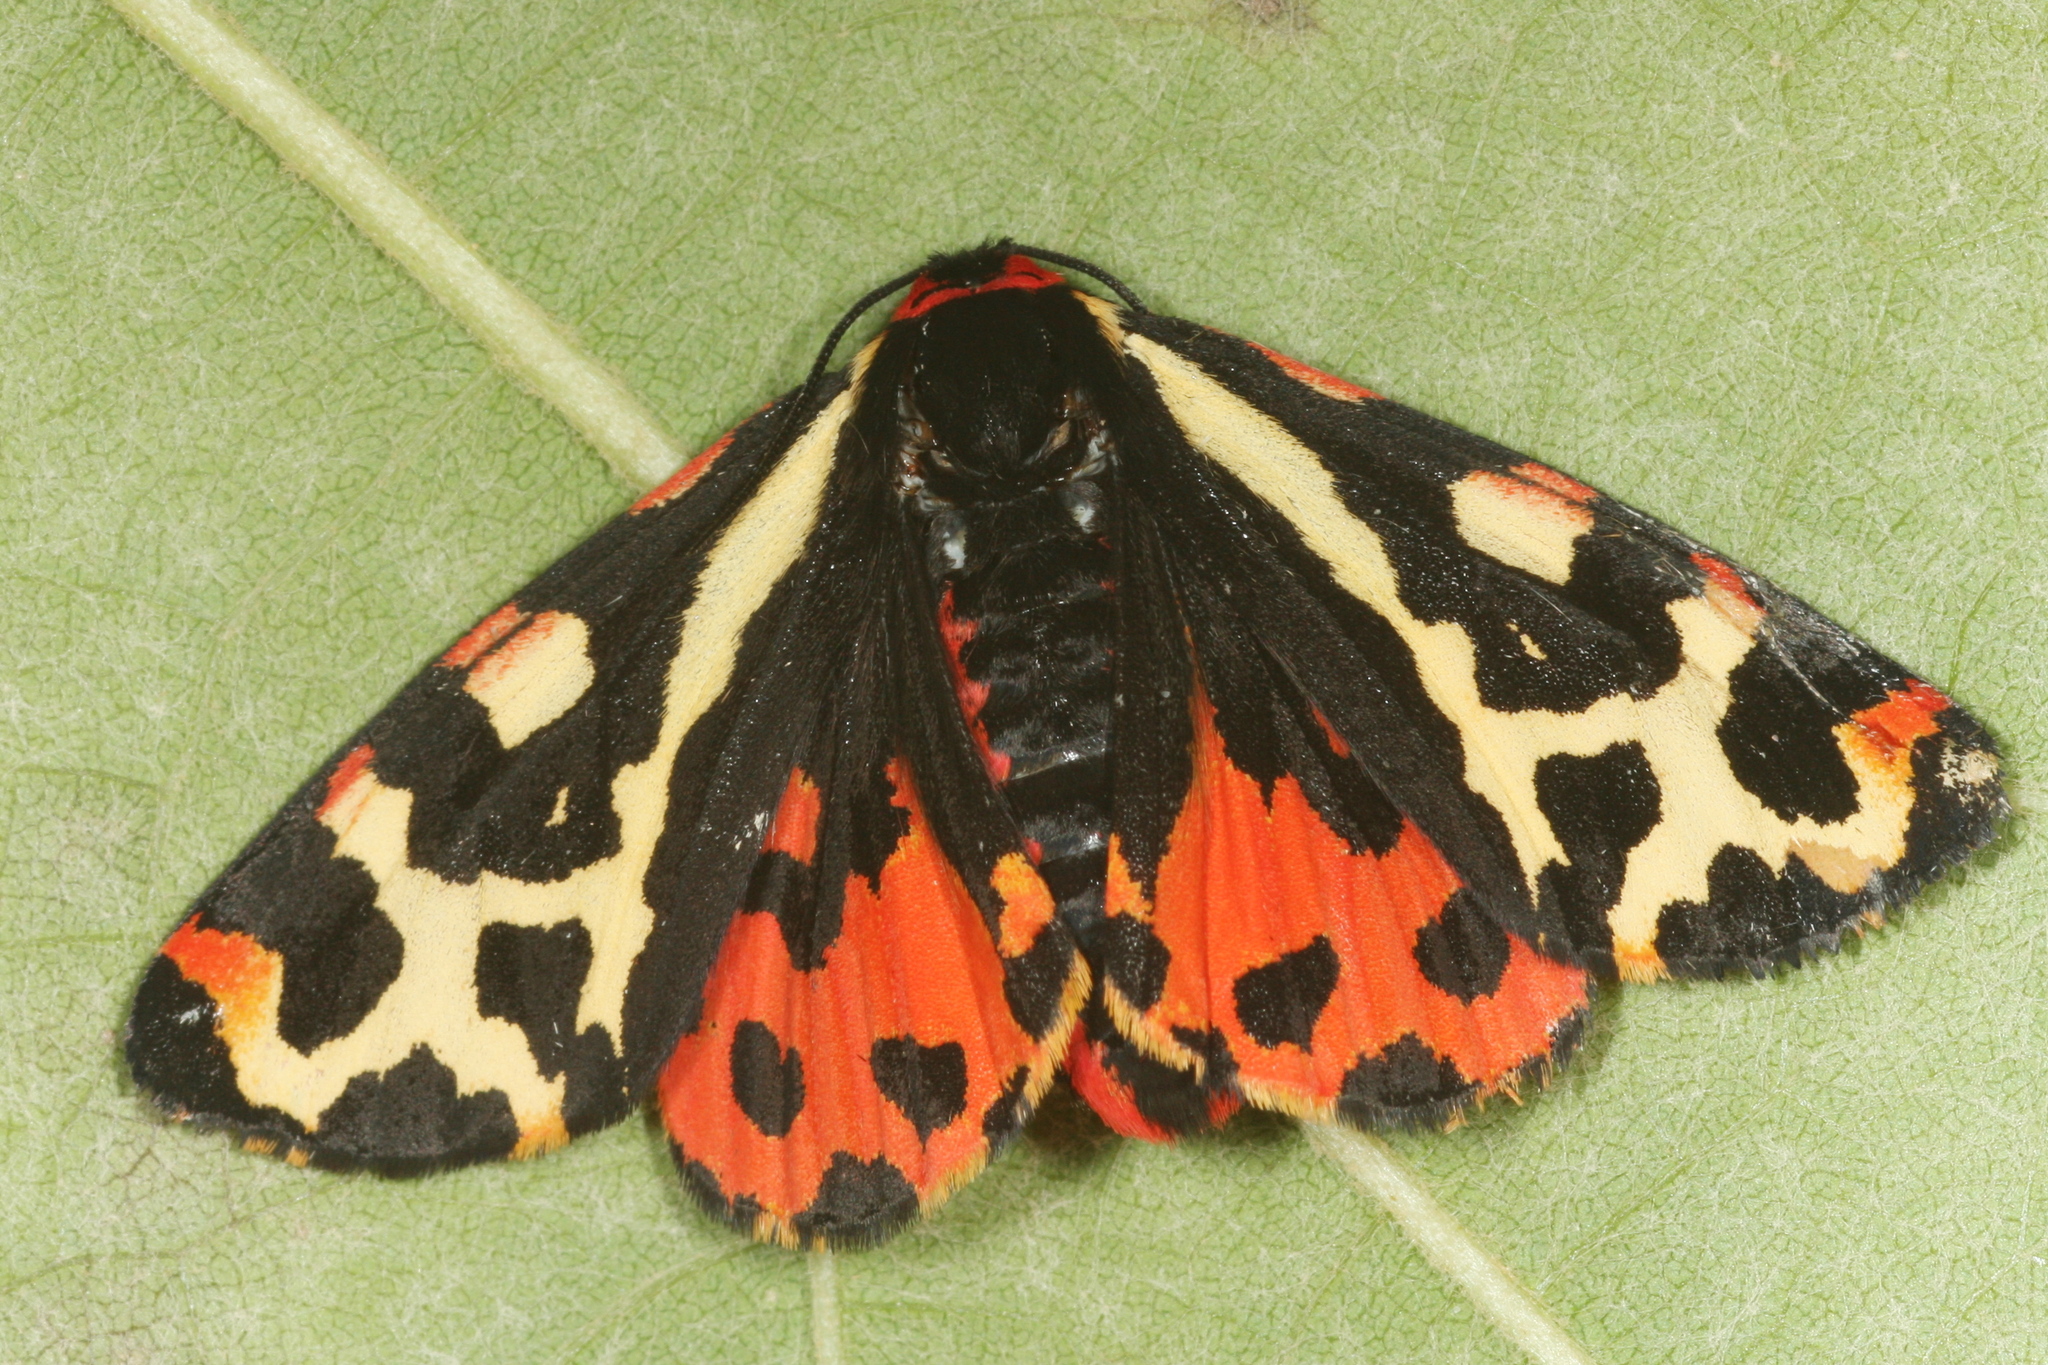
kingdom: Animalia
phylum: Arthropoda
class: Insecta
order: Lepidoptera
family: Erebidae
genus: Parasemia
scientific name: Parasemia plantaginis
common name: Wood tiger
